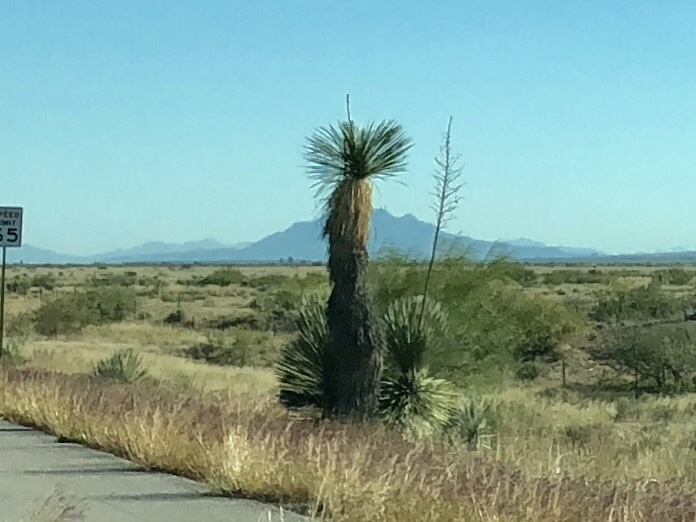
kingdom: Plantae
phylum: Tracheophyta
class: Liliopsida
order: Asparagales
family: Asparagaceae
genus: Yucca
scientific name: Yucca elata
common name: Palmella
